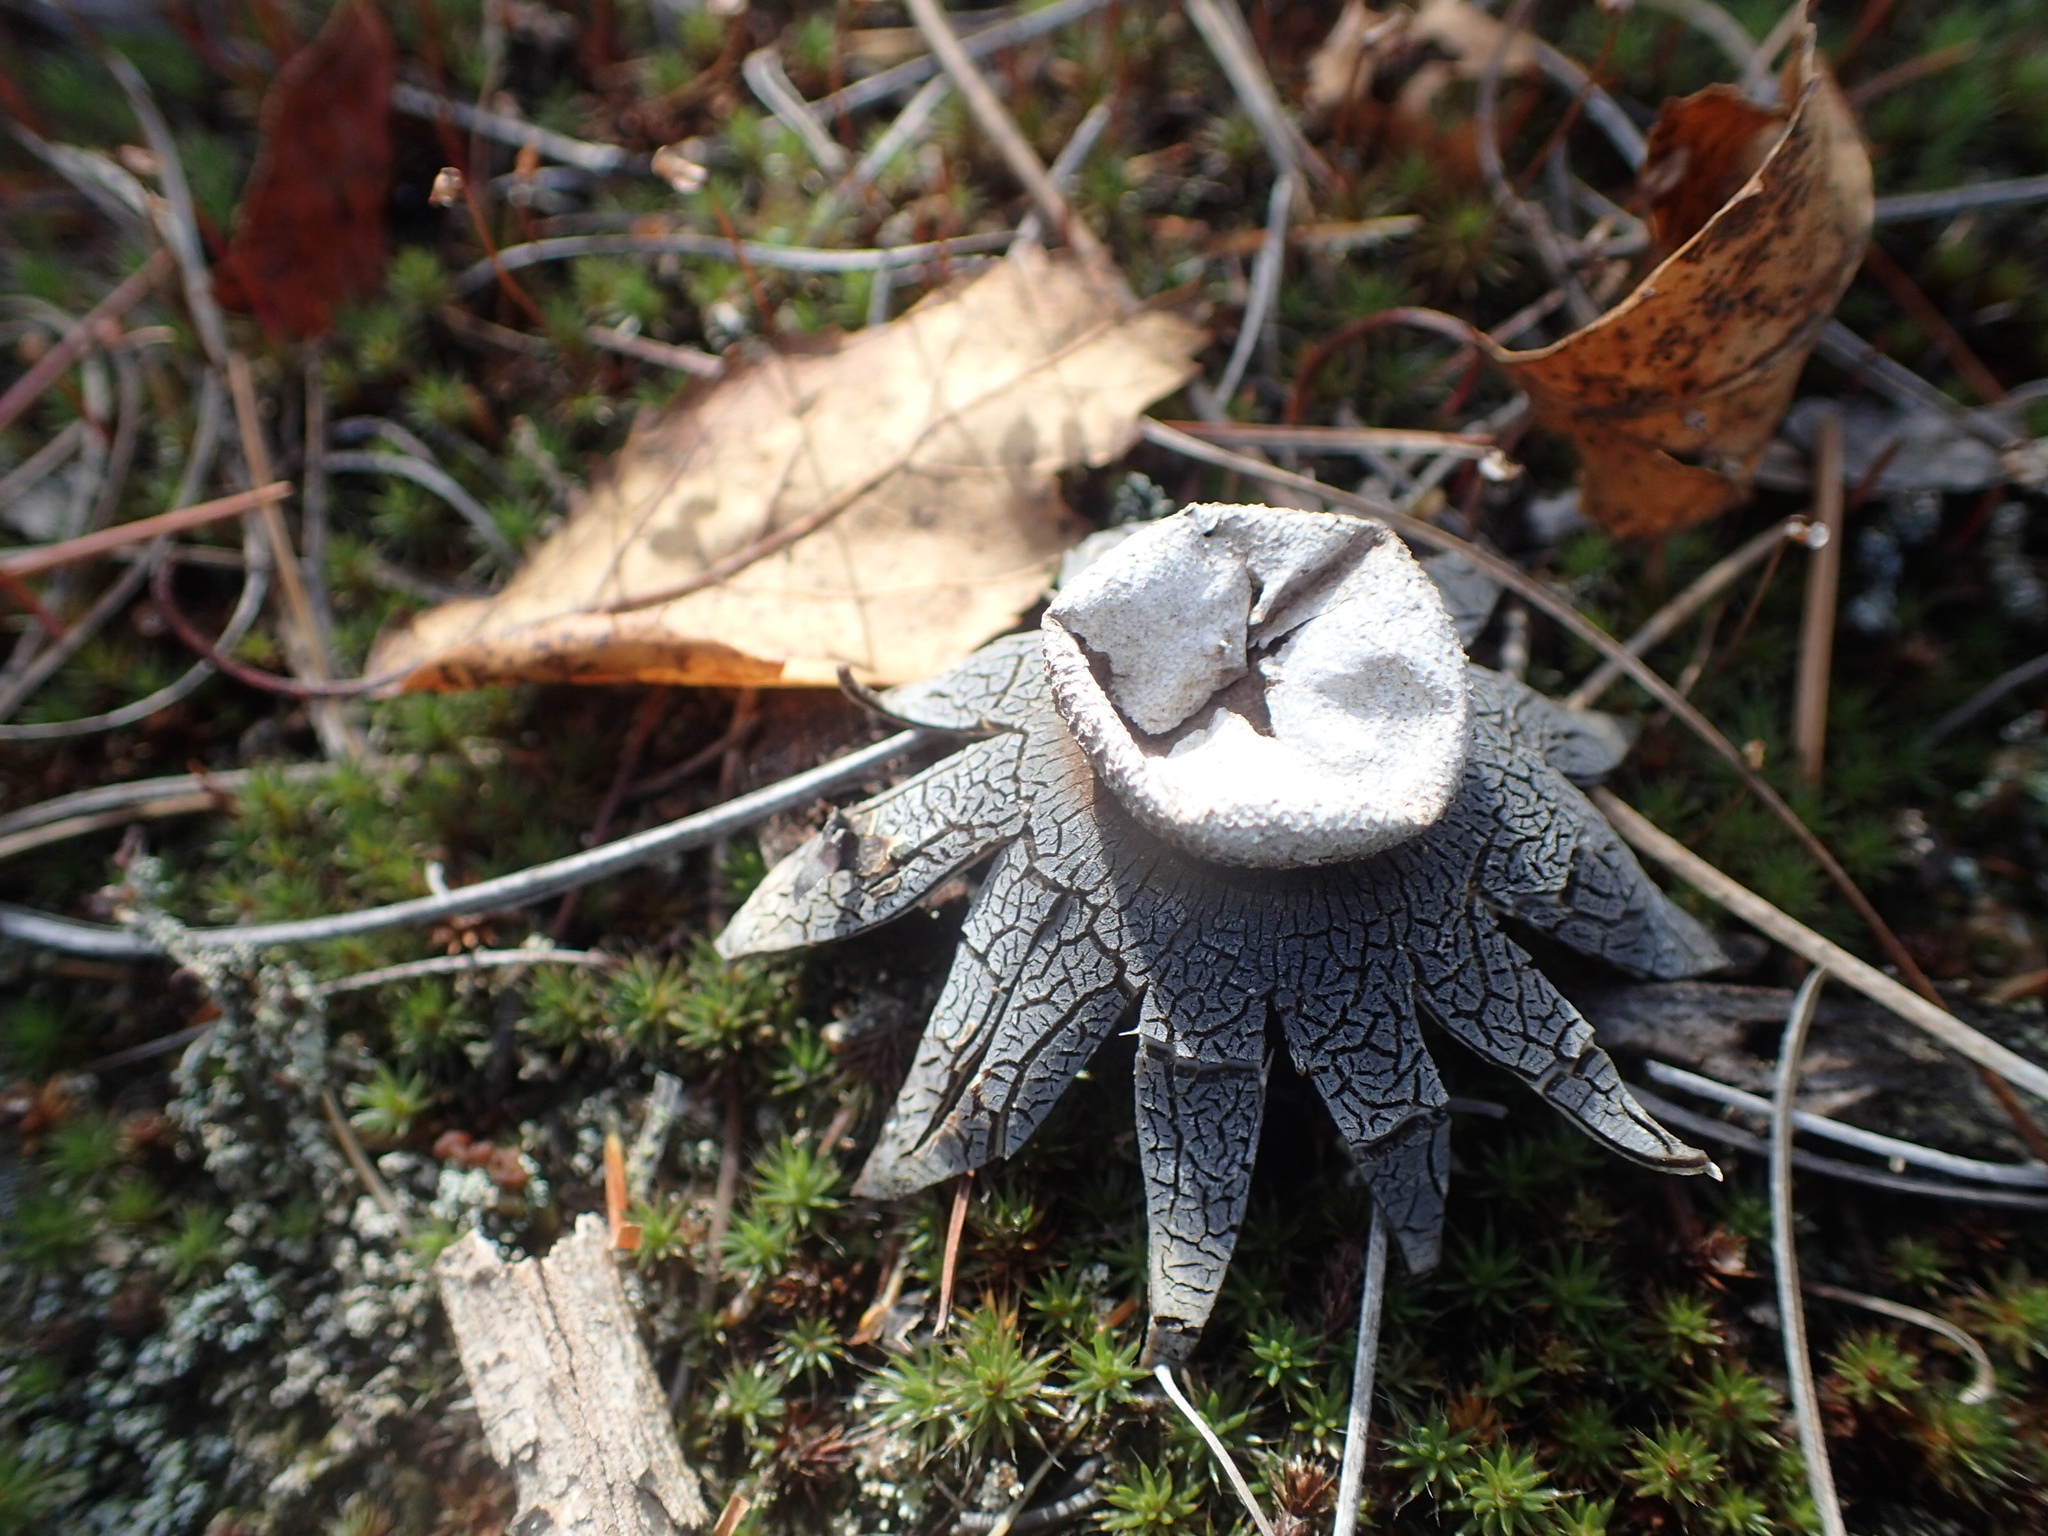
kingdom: Fungi
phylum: Basidiomycota
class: Agaricomycetes
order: Boletales
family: Diplocystidiaceae
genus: Astraeus
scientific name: Astraeus hygrometricus
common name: Barometer earthstar
